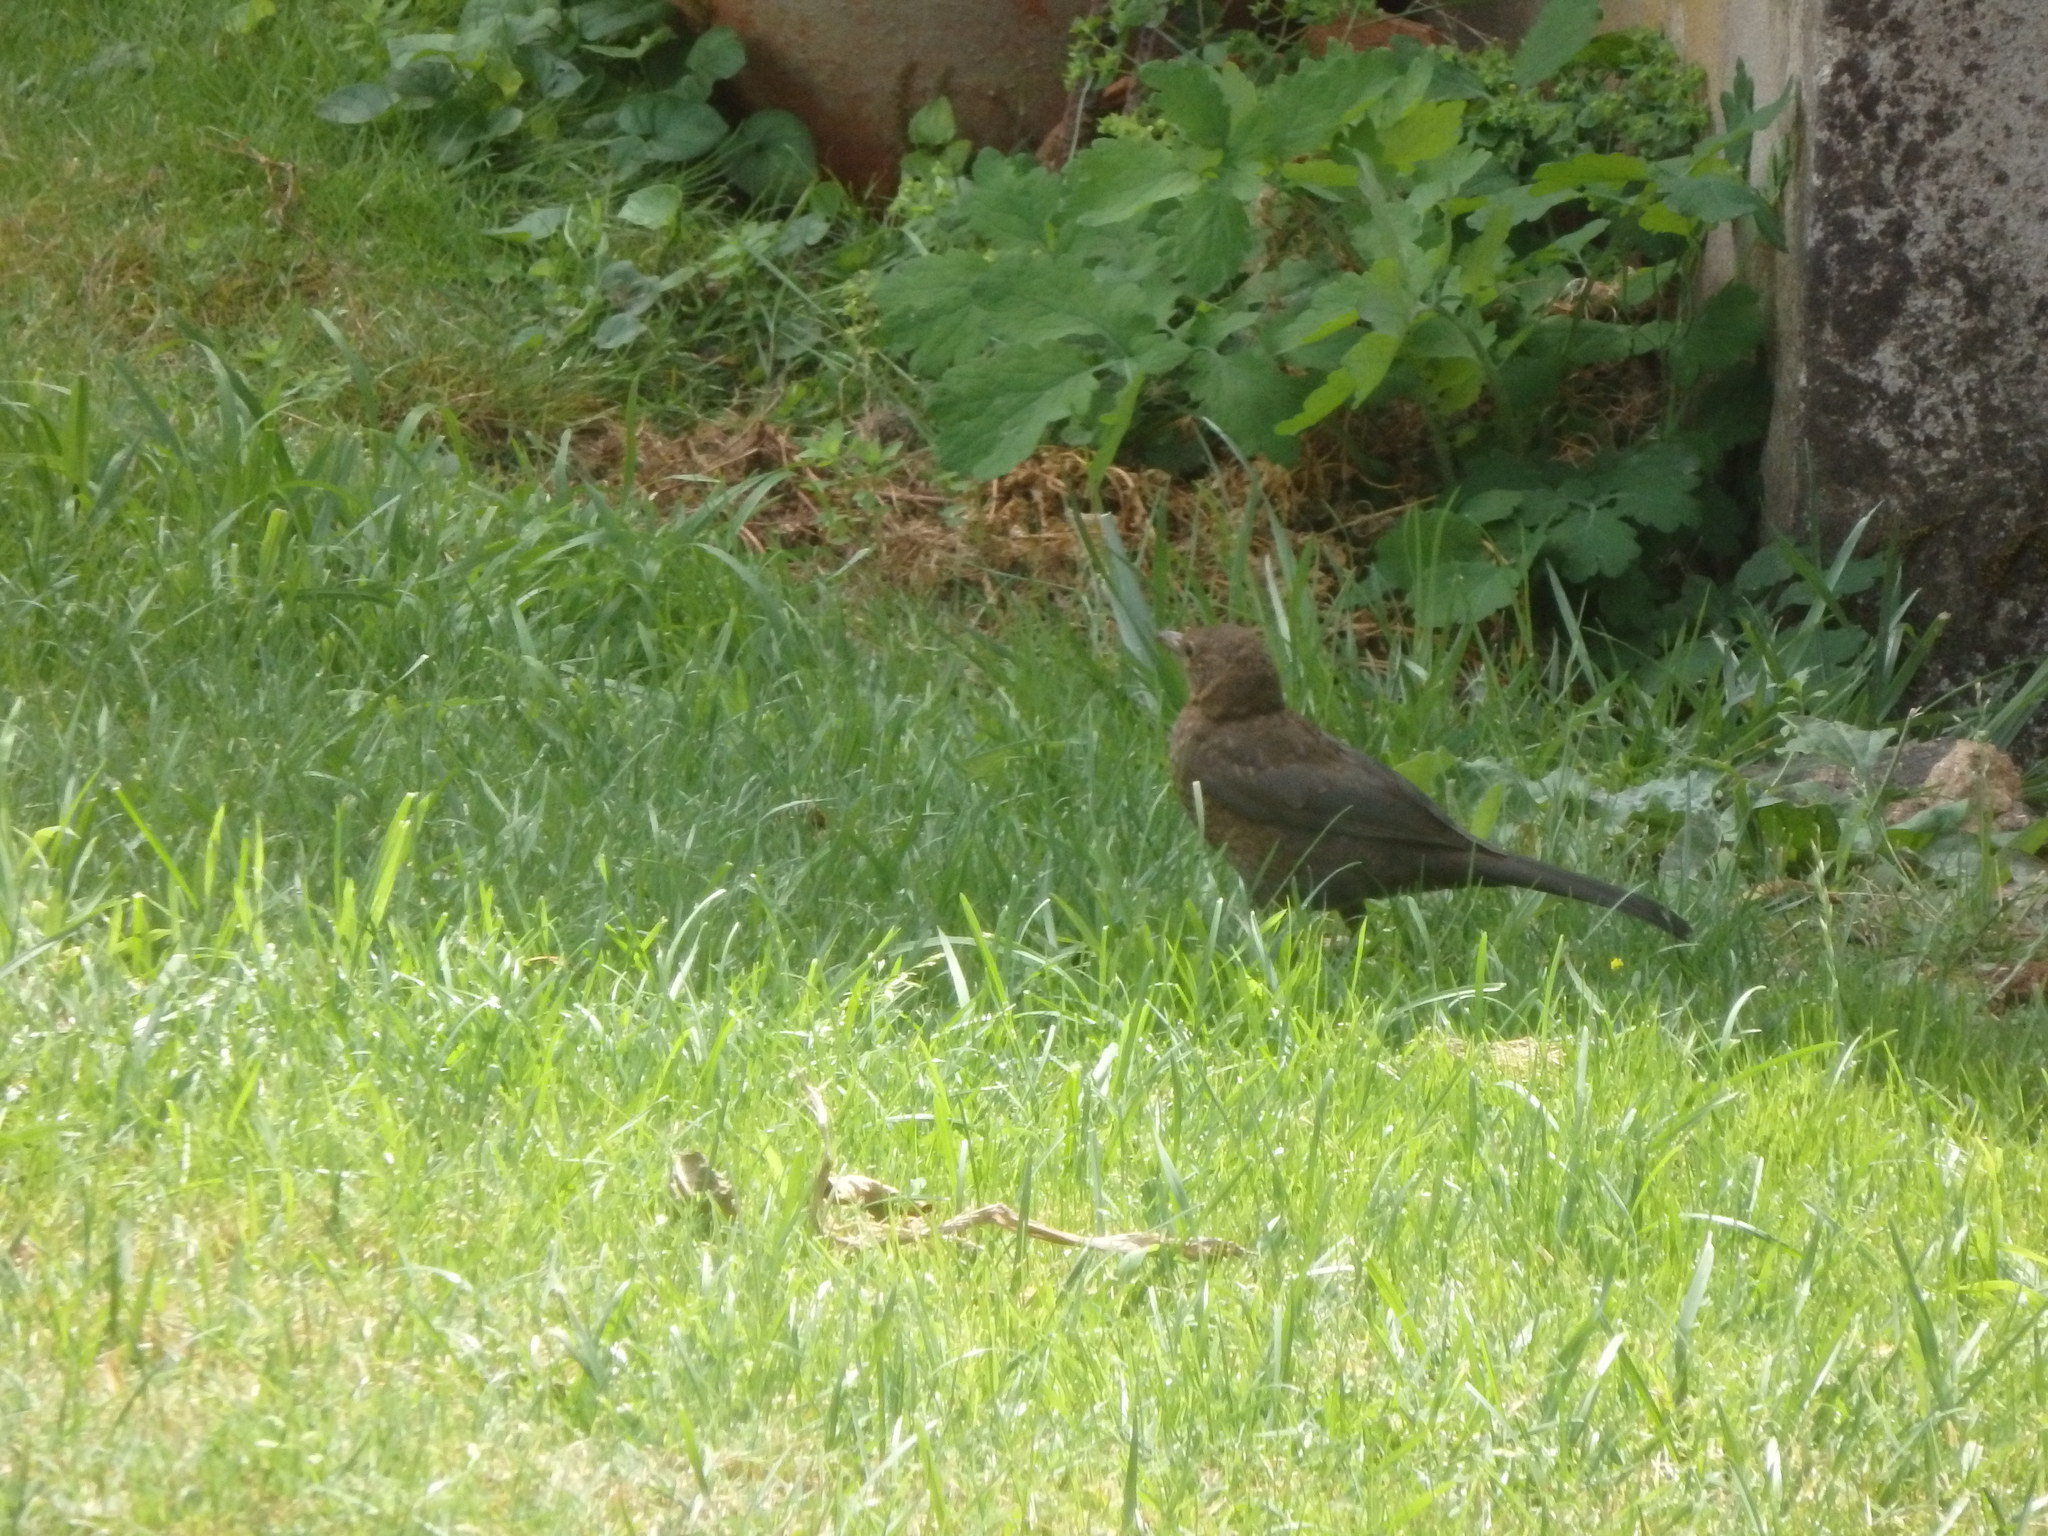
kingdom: Animalia
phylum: Chordata
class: Aves
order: Passeriformes
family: Turdidae
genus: Turdus
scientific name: Turdus merula
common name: Common blackbird
